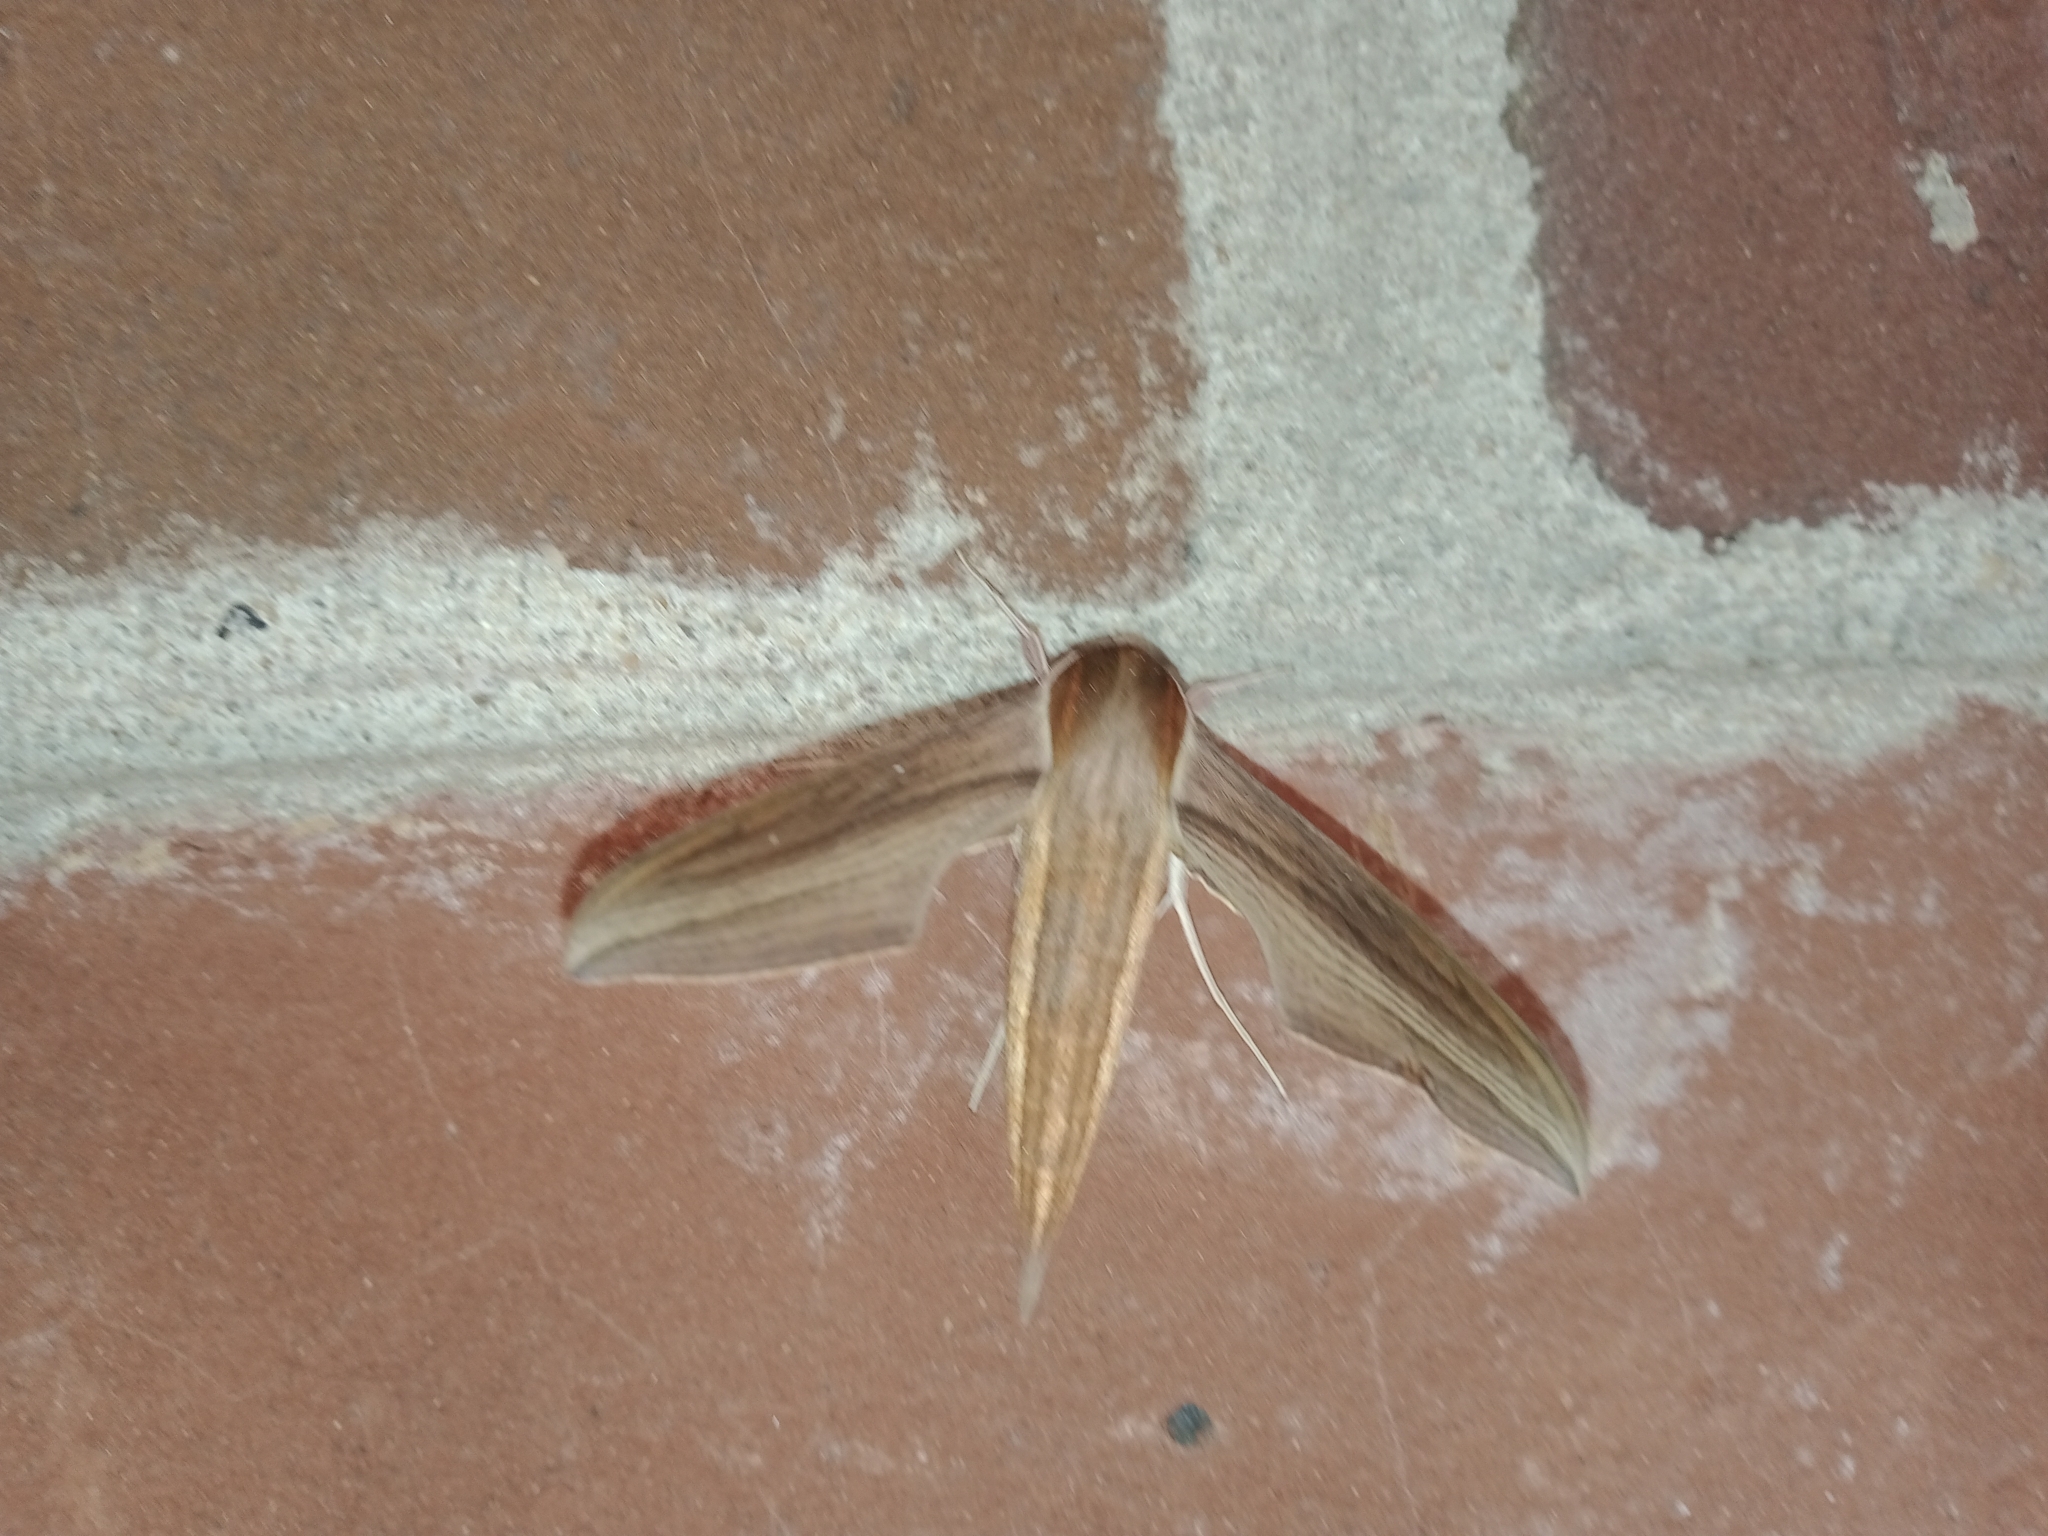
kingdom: Animalia
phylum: Arthropoda
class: Insecta
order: Lepidoptera
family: Sphingidae
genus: Xylophanes
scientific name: Xylophanes tersa
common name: Tersa sphinx
